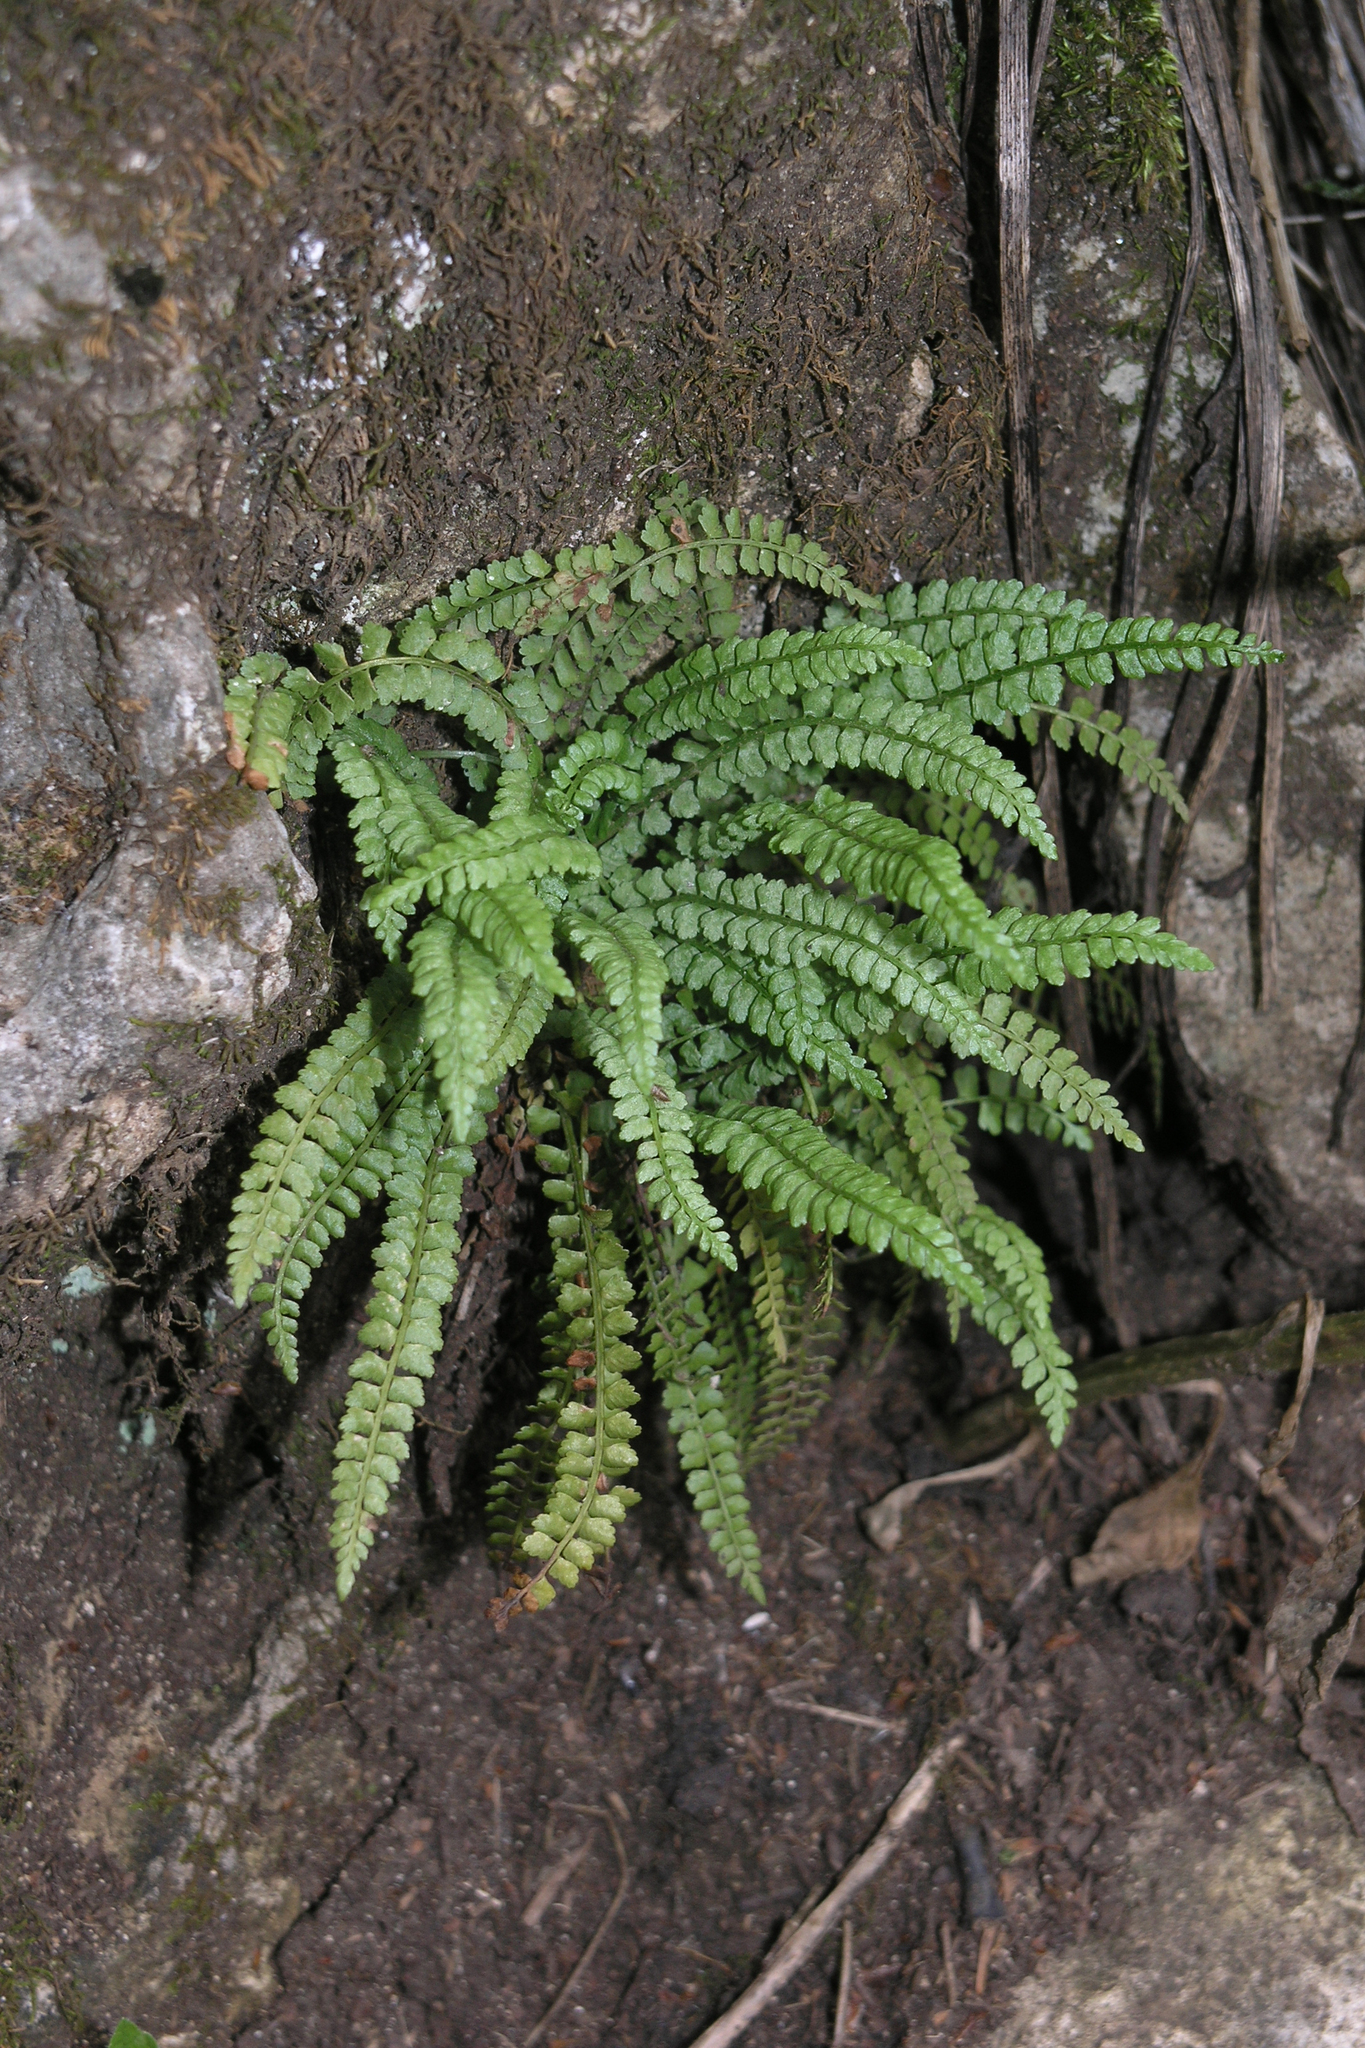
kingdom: Plantae
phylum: Tracheophyta
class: Polypodiopsida
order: Polypodiales
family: Aspleniaceae
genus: Asplenium
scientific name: Asplenium viride
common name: Green spleenwort
